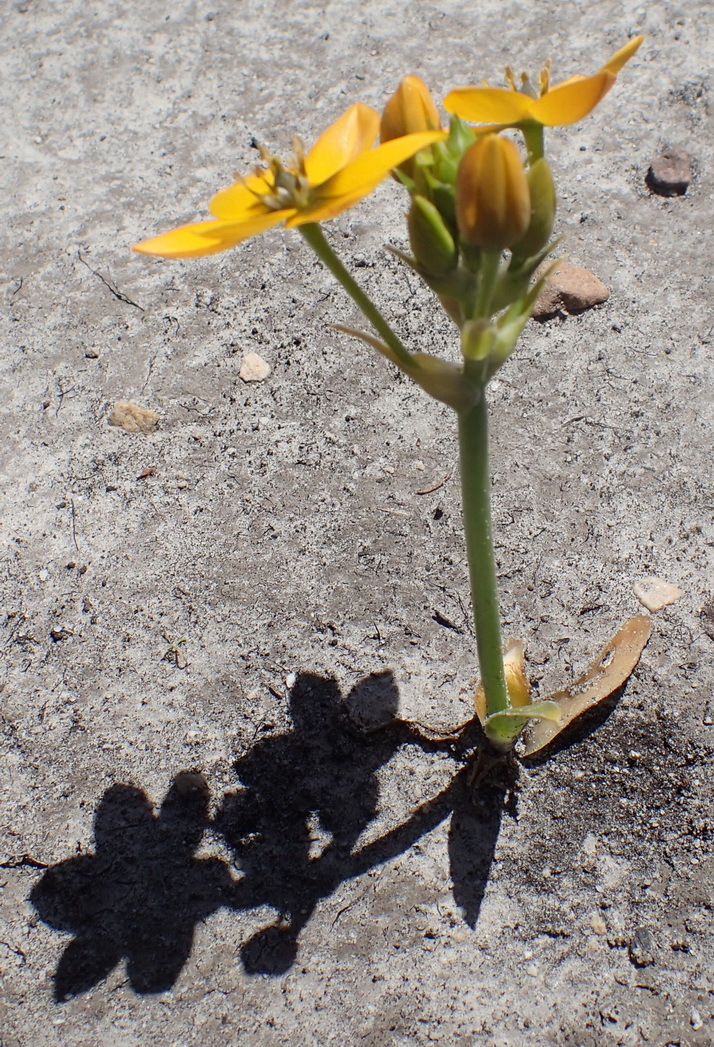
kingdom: Plantae
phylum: Tracheophyta
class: Liliopsida
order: Asparagales
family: Asparagaceae
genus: Ornithogalum
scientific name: Ornithogalum dubium
